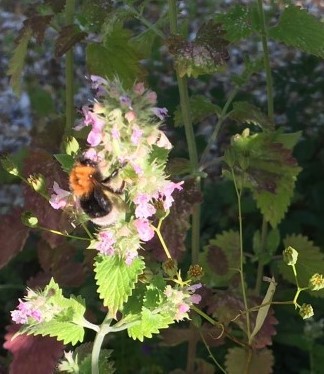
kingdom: Animalia
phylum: Arthropoda
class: Insecta
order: Hymenoptera
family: Apidae
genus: Bombus
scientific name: Bombus hypnorum
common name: New garden bumblebee
